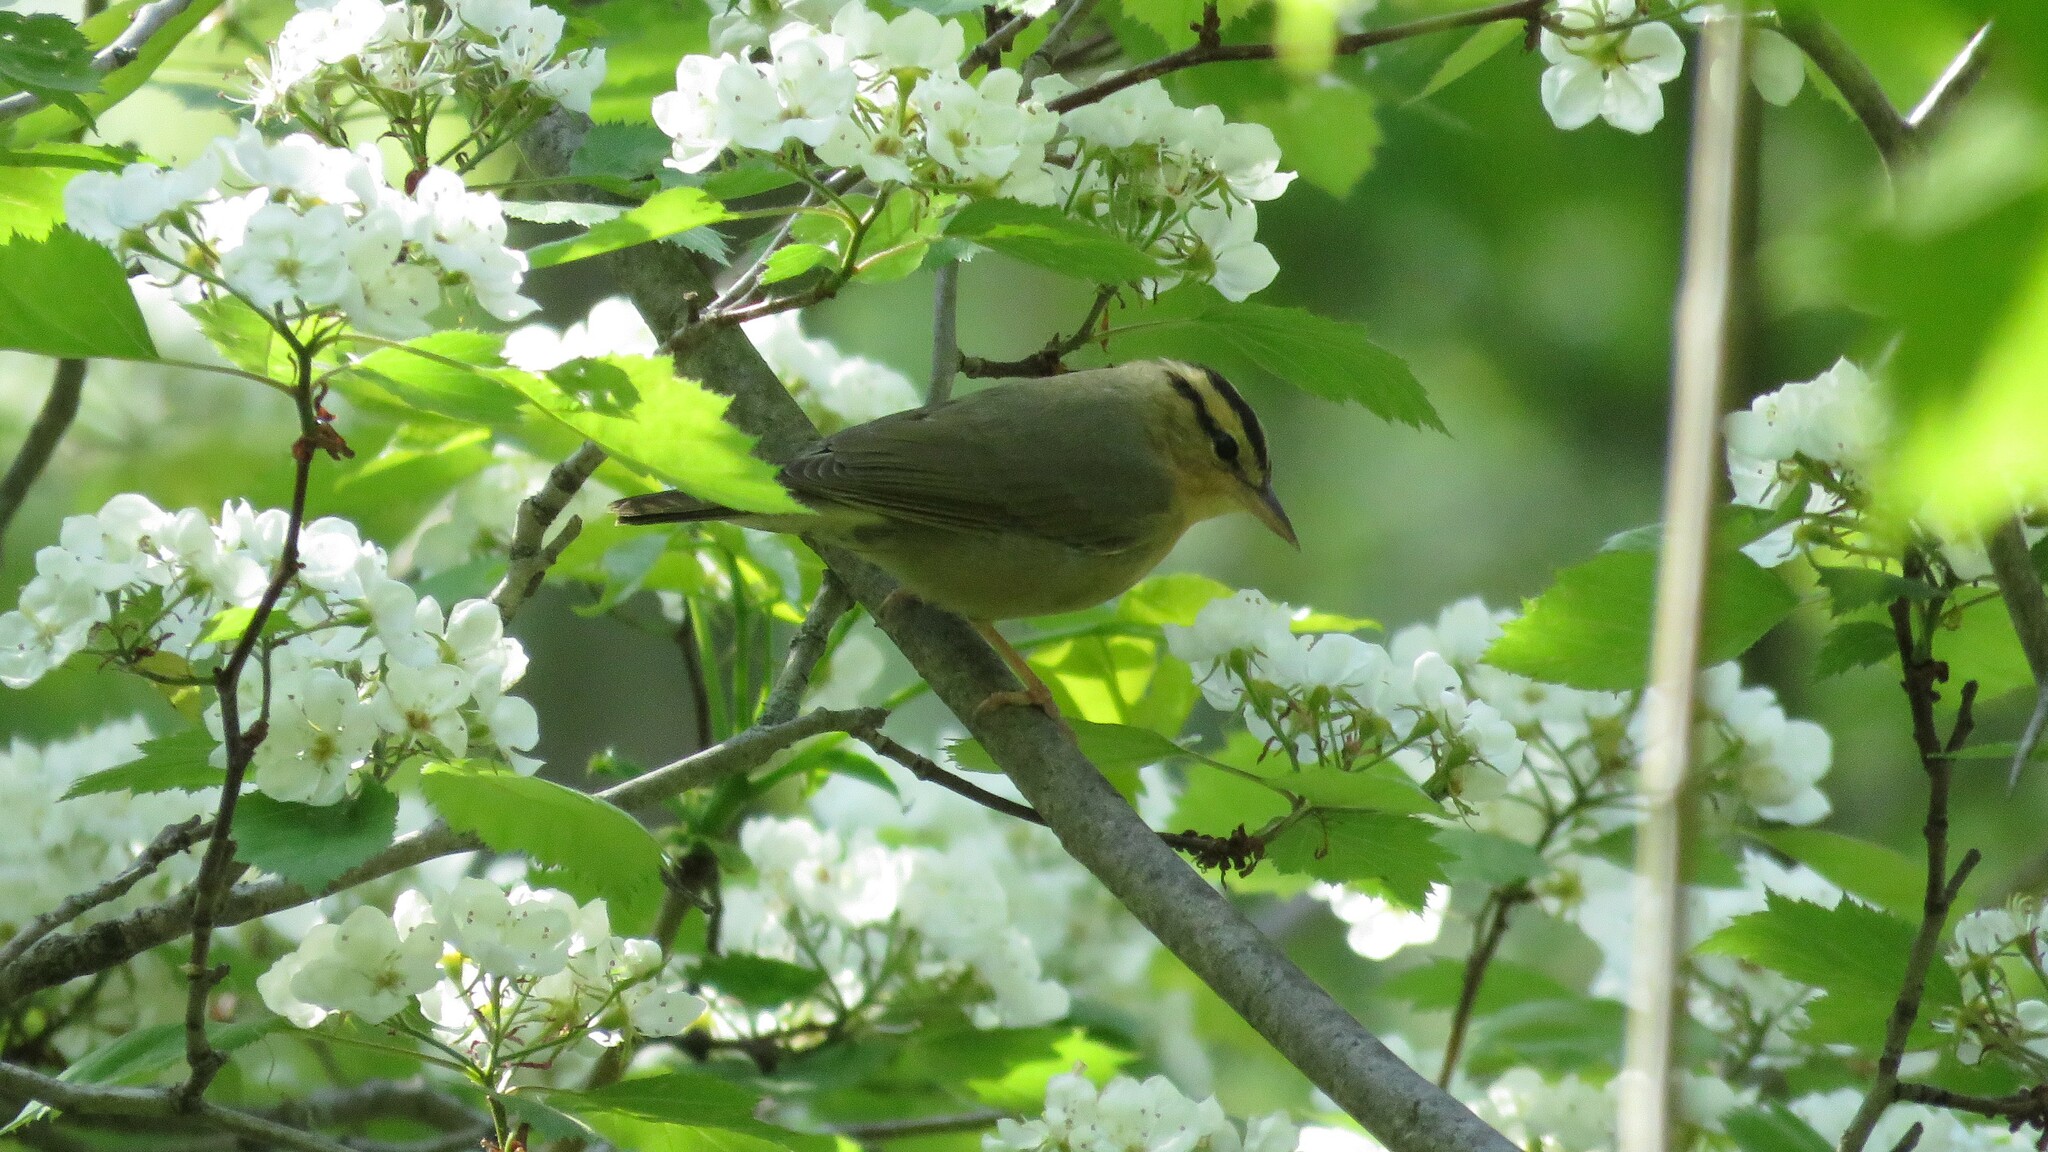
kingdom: Animalia
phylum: Chordata
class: Aves
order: Passeriformes
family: Parulidae
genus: Helmitheros
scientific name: Helmitheros vermivorum
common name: Worm-eating warbler
